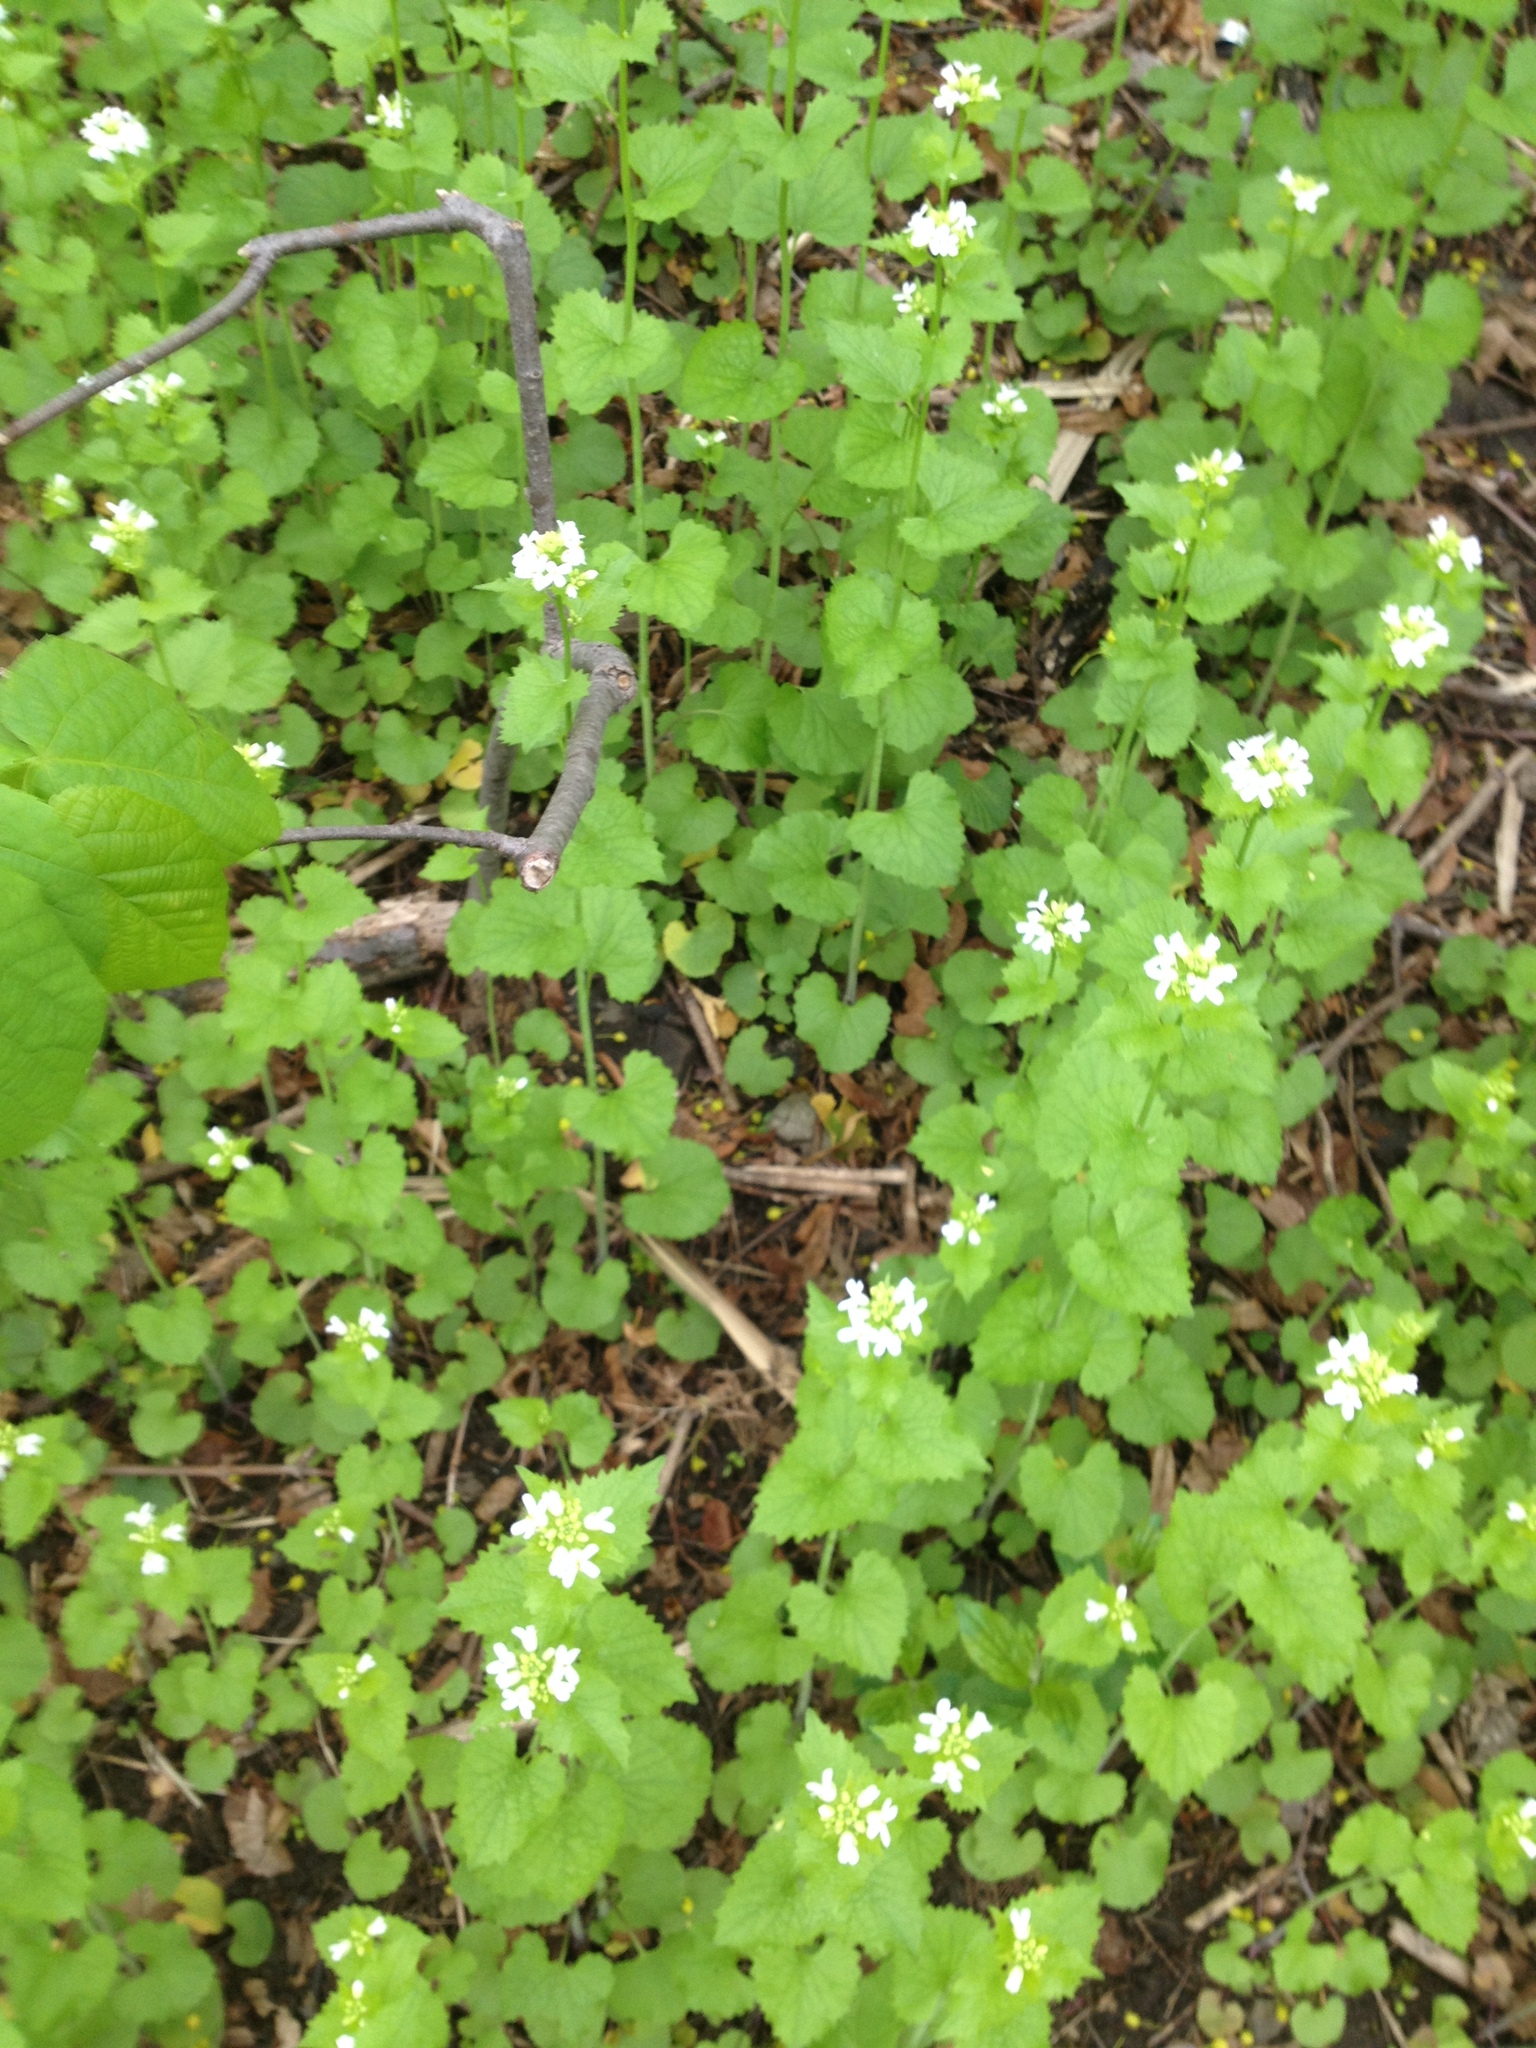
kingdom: Plantae
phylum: Tracheophyta
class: Magnoliopsida
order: Brassicales
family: Brassicaceae
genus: Alliaria
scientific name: Alliaria petiolata
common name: Garlic mustard
